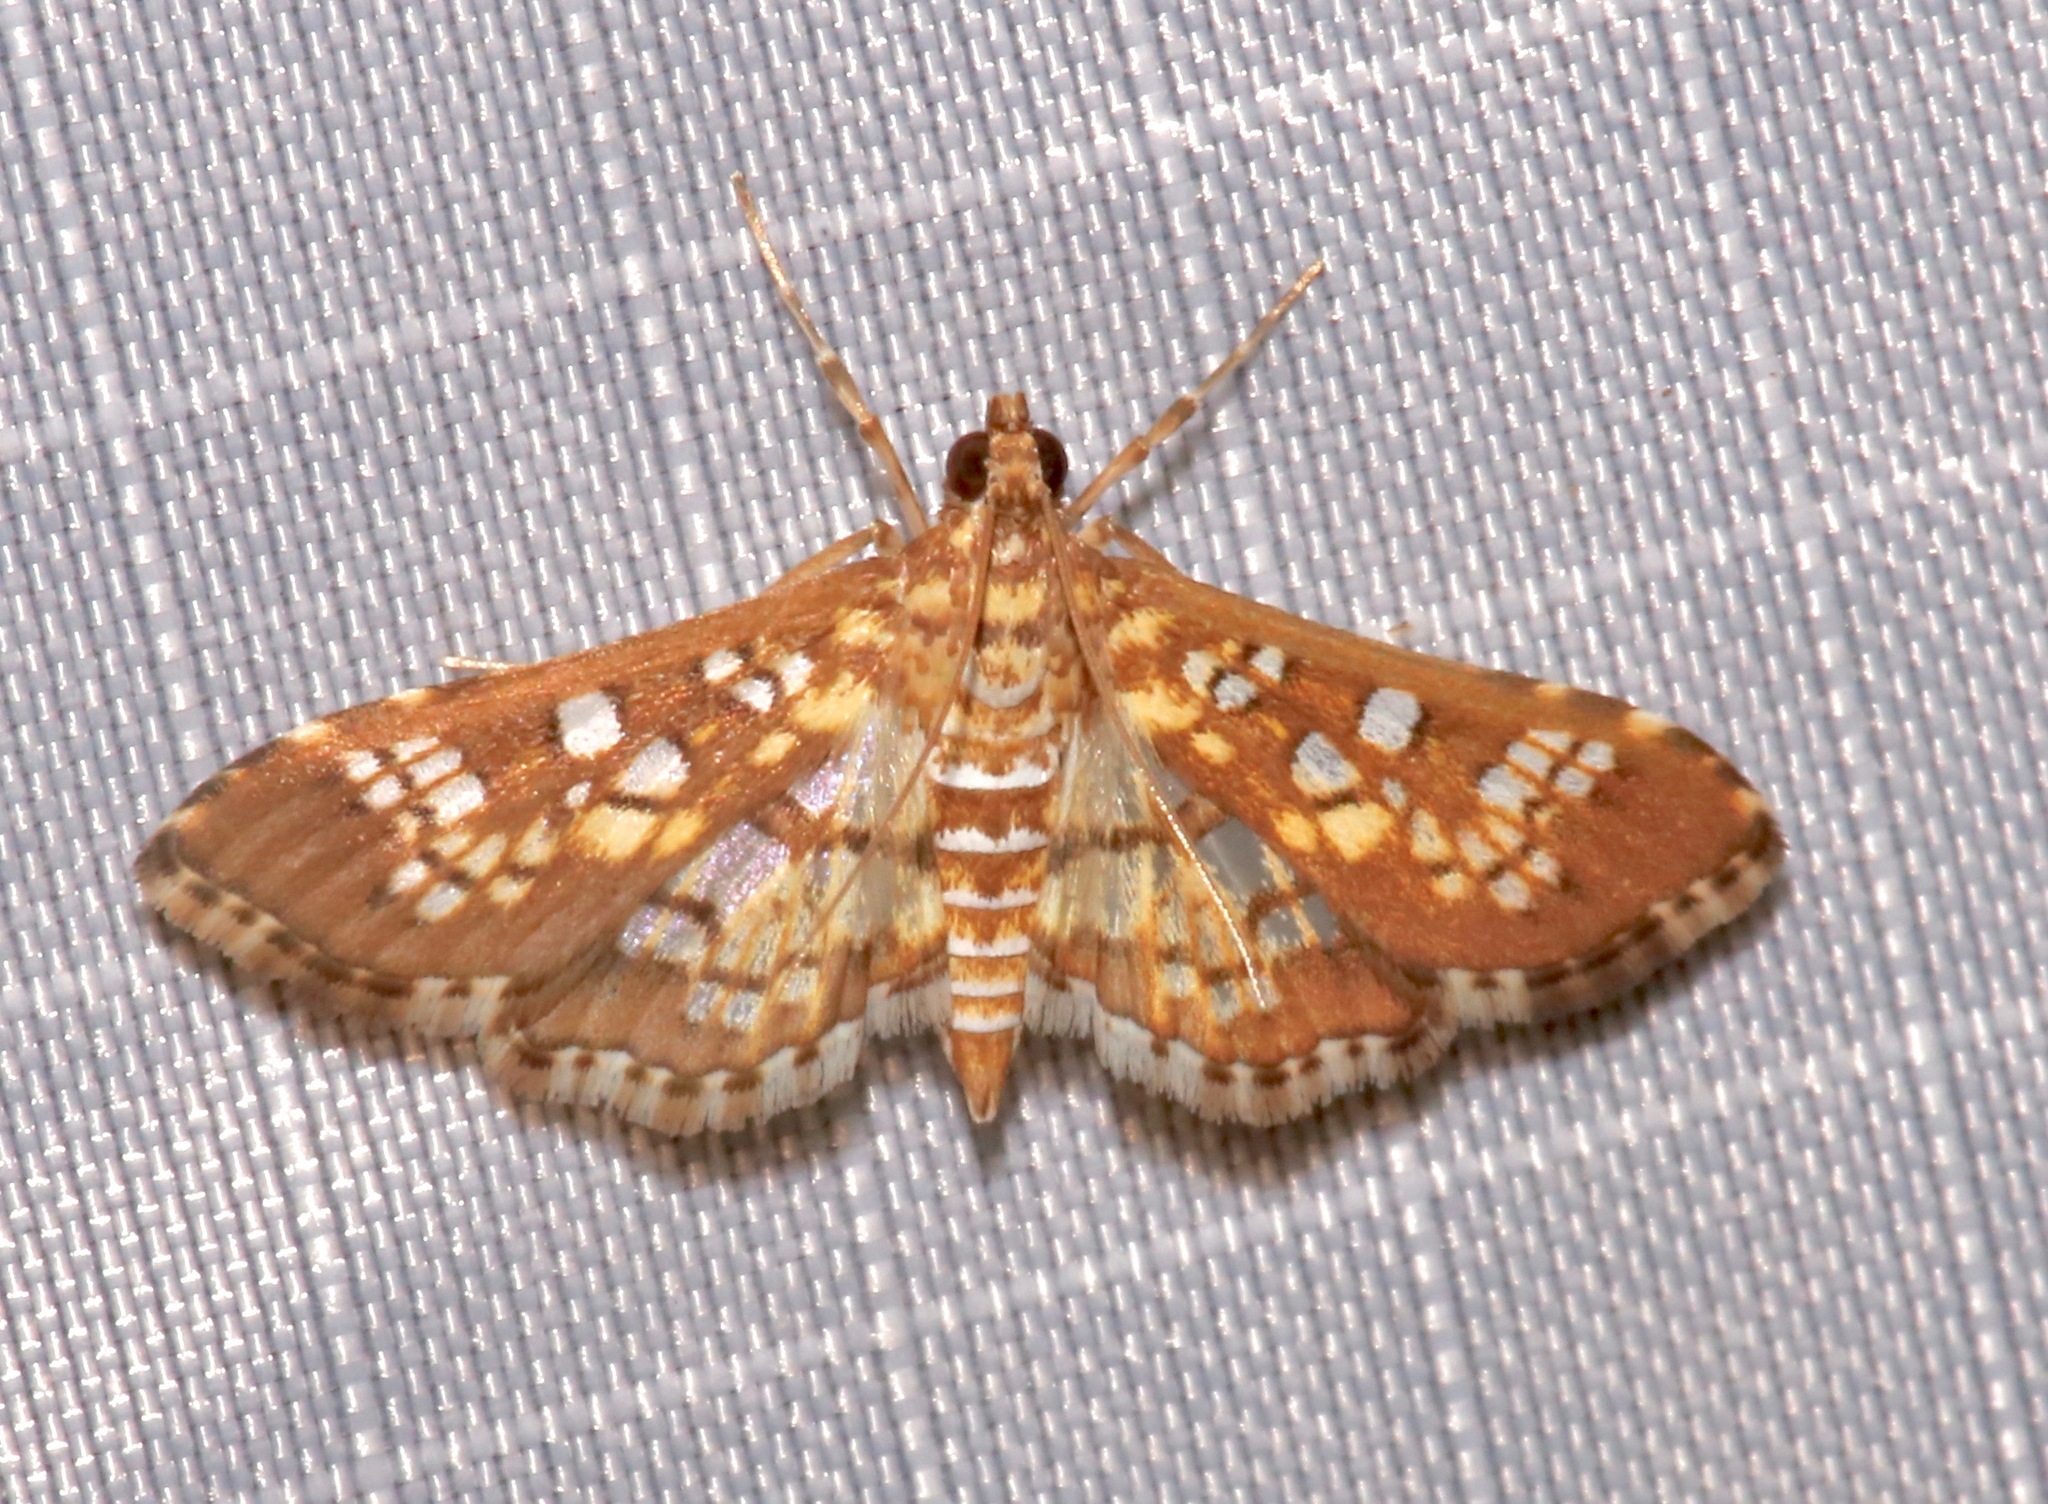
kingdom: Animalia
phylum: Arthropoda
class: Insecta
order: Lepidoptera
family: Crambidae
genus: Samea
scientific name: Samea ecclesialis
